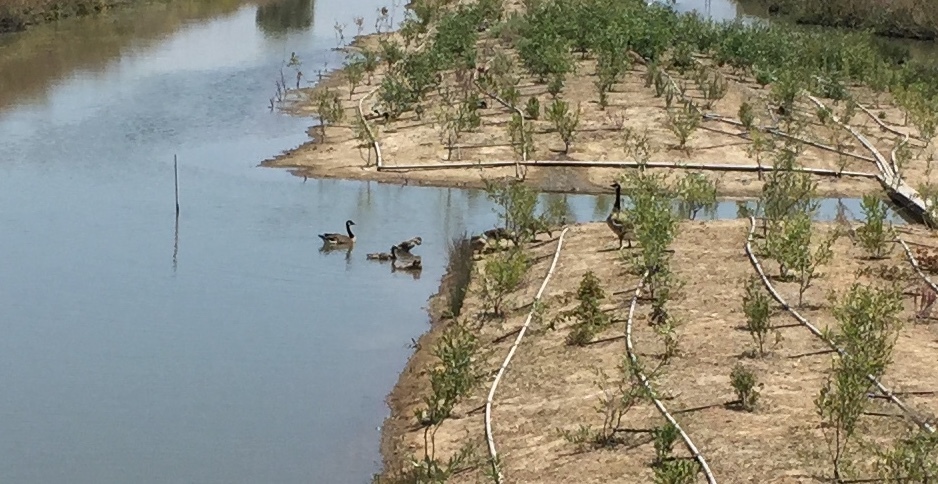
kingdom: Animalia
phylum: Chordata
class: Aves
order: Anseriformes
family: Anatidae
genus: Branta
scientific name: Branta canadensis
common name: Canada goose
